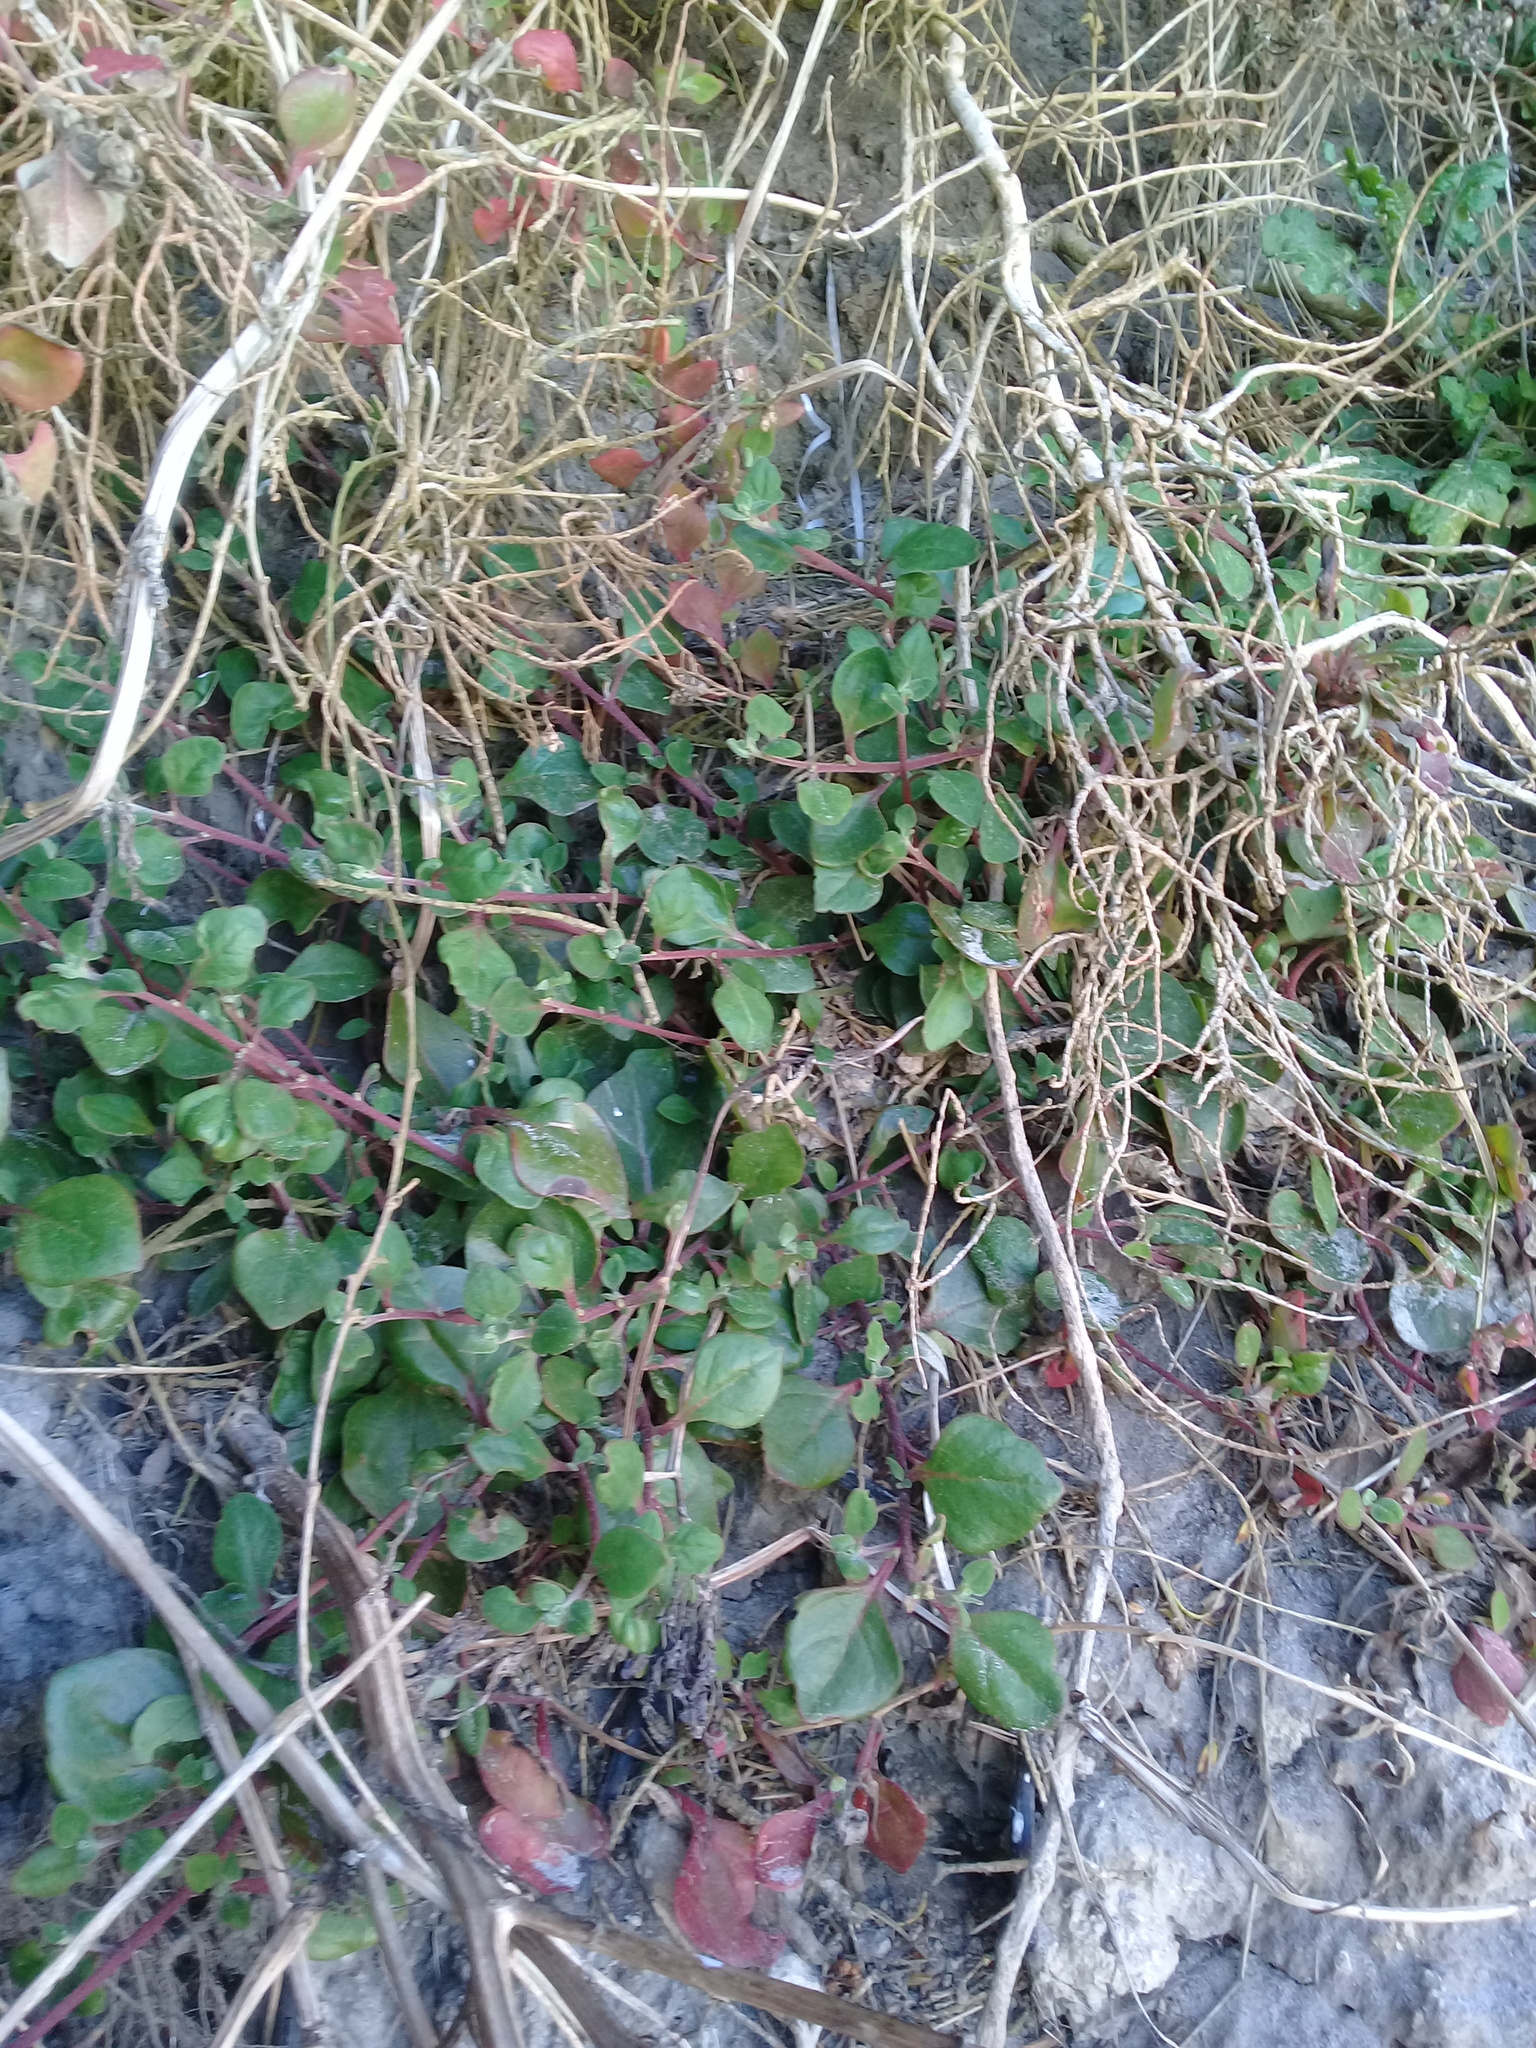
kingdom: Plantae
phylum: Tracheophyta
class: Magnoliopsida
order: Caryophyllales
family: Aizoaceae
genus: Tetragonia
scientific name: Tetragonia implexicoma
